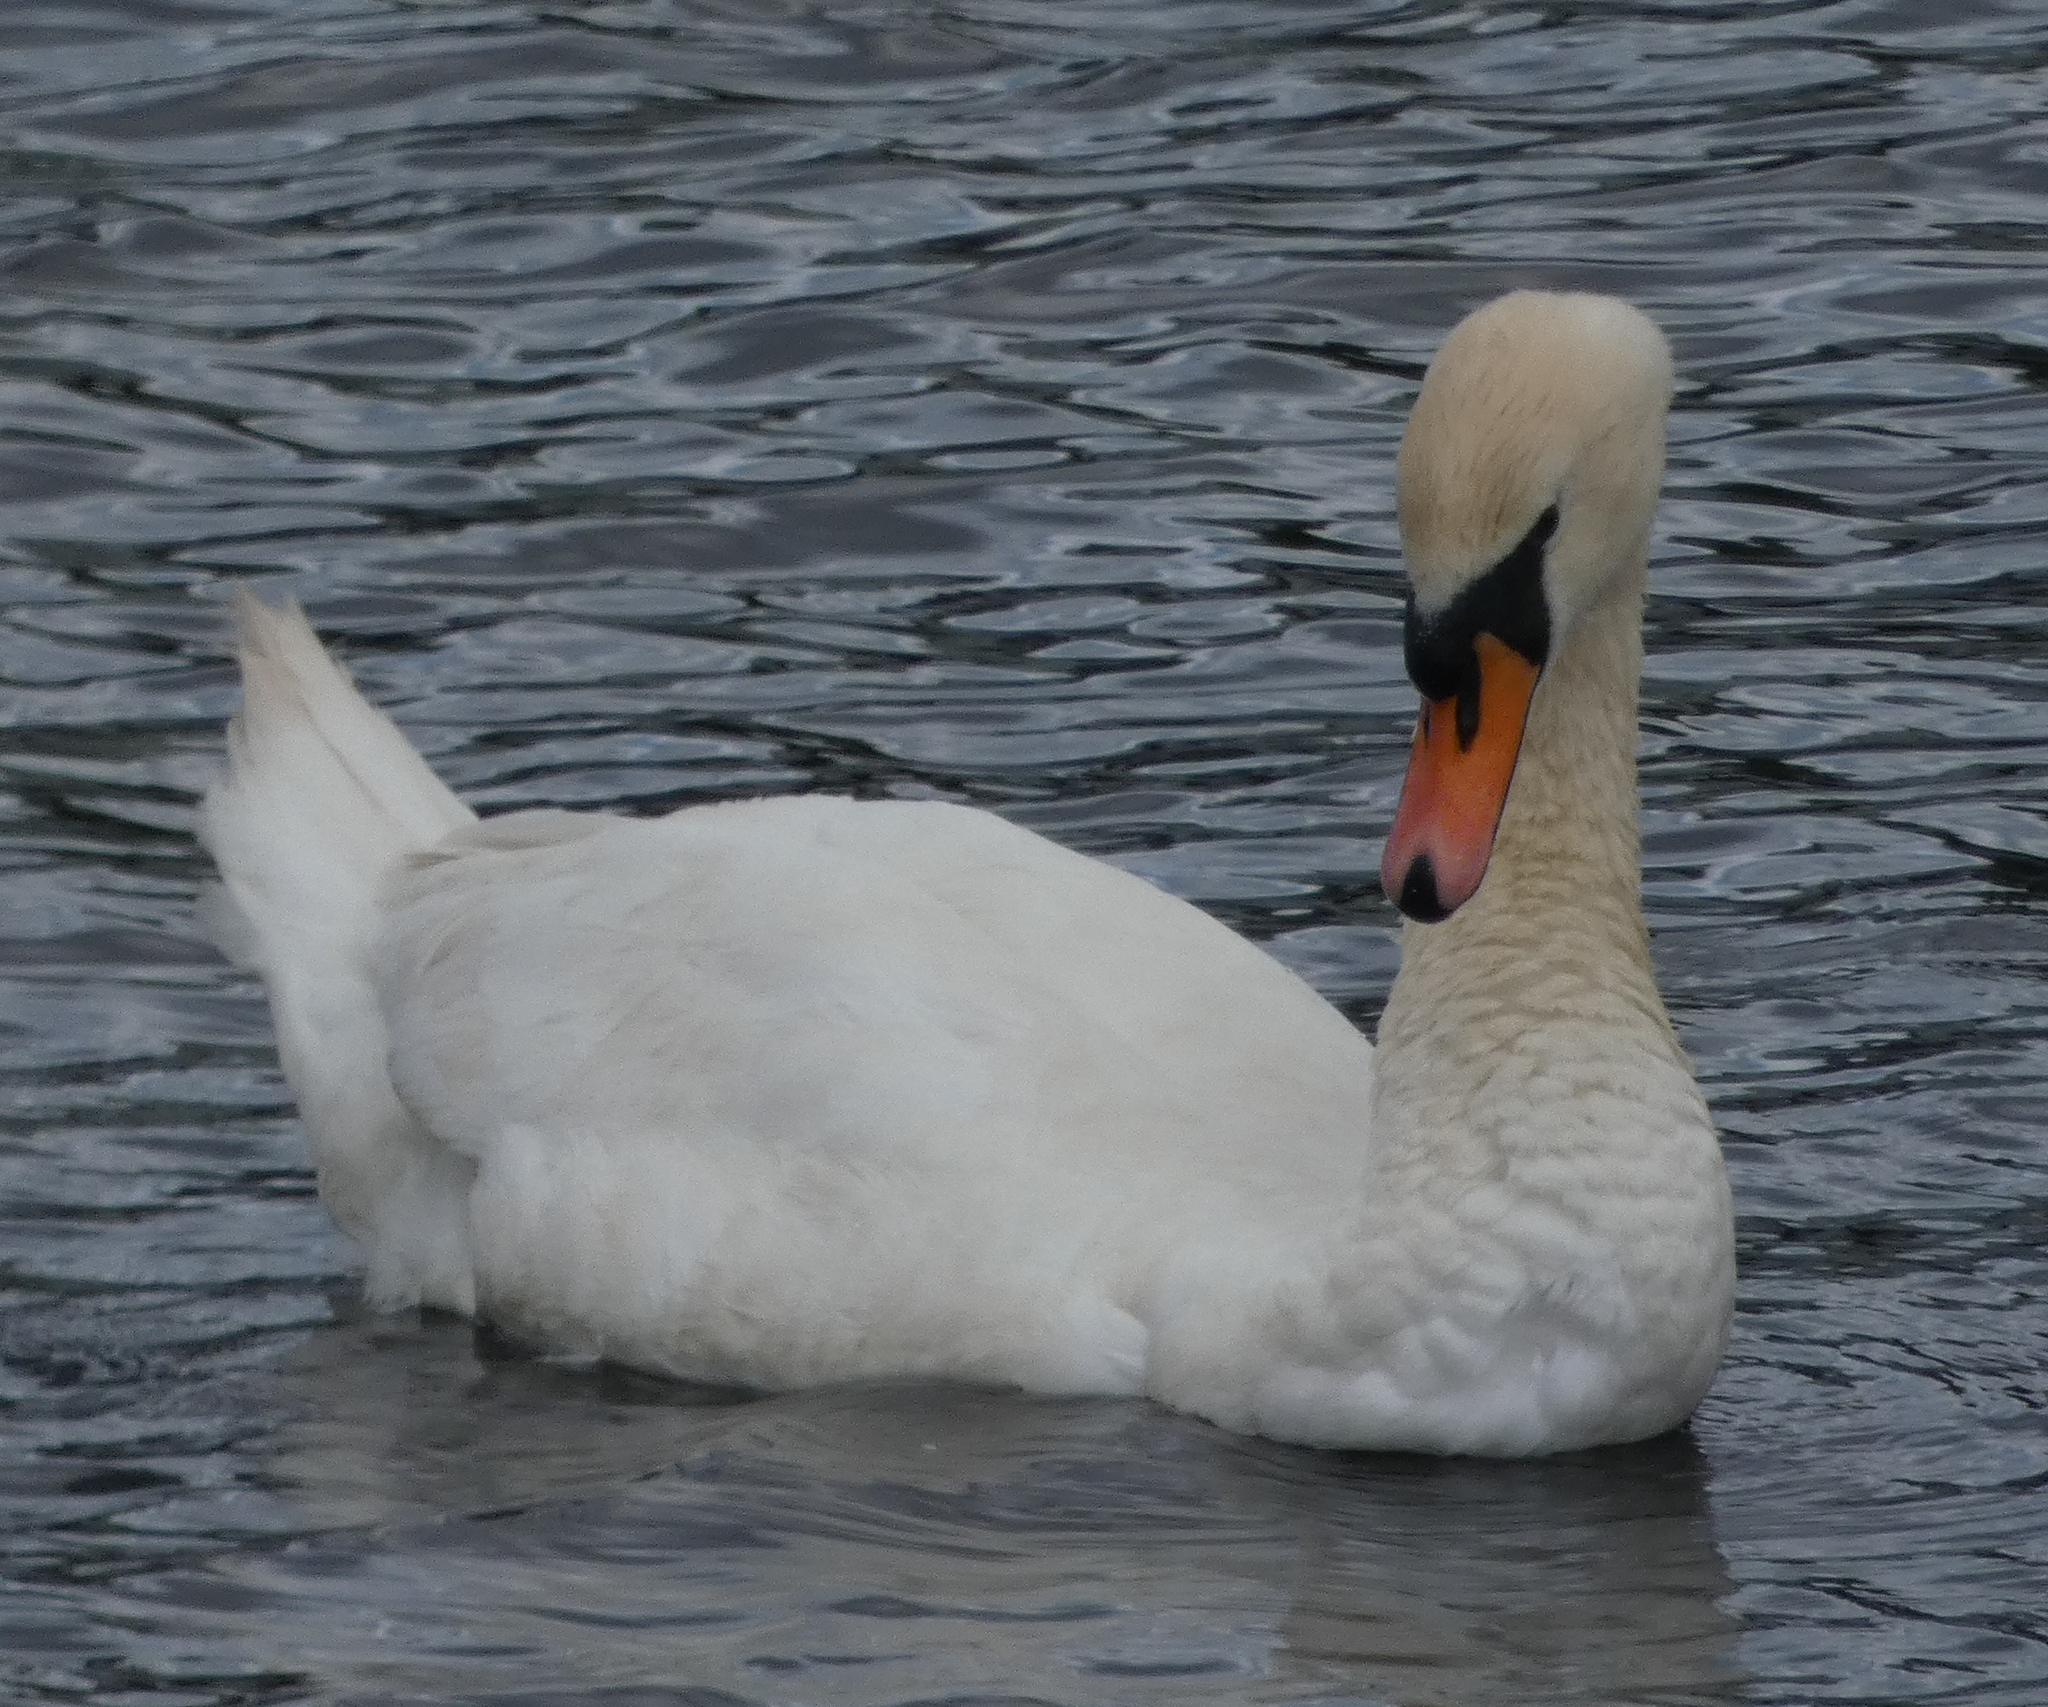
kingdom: Animalia
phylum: Chordata
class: Aves
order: Anseriformes
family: Anatidae
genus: Cygnus
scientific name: Cygnus olor
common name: Mute swan
